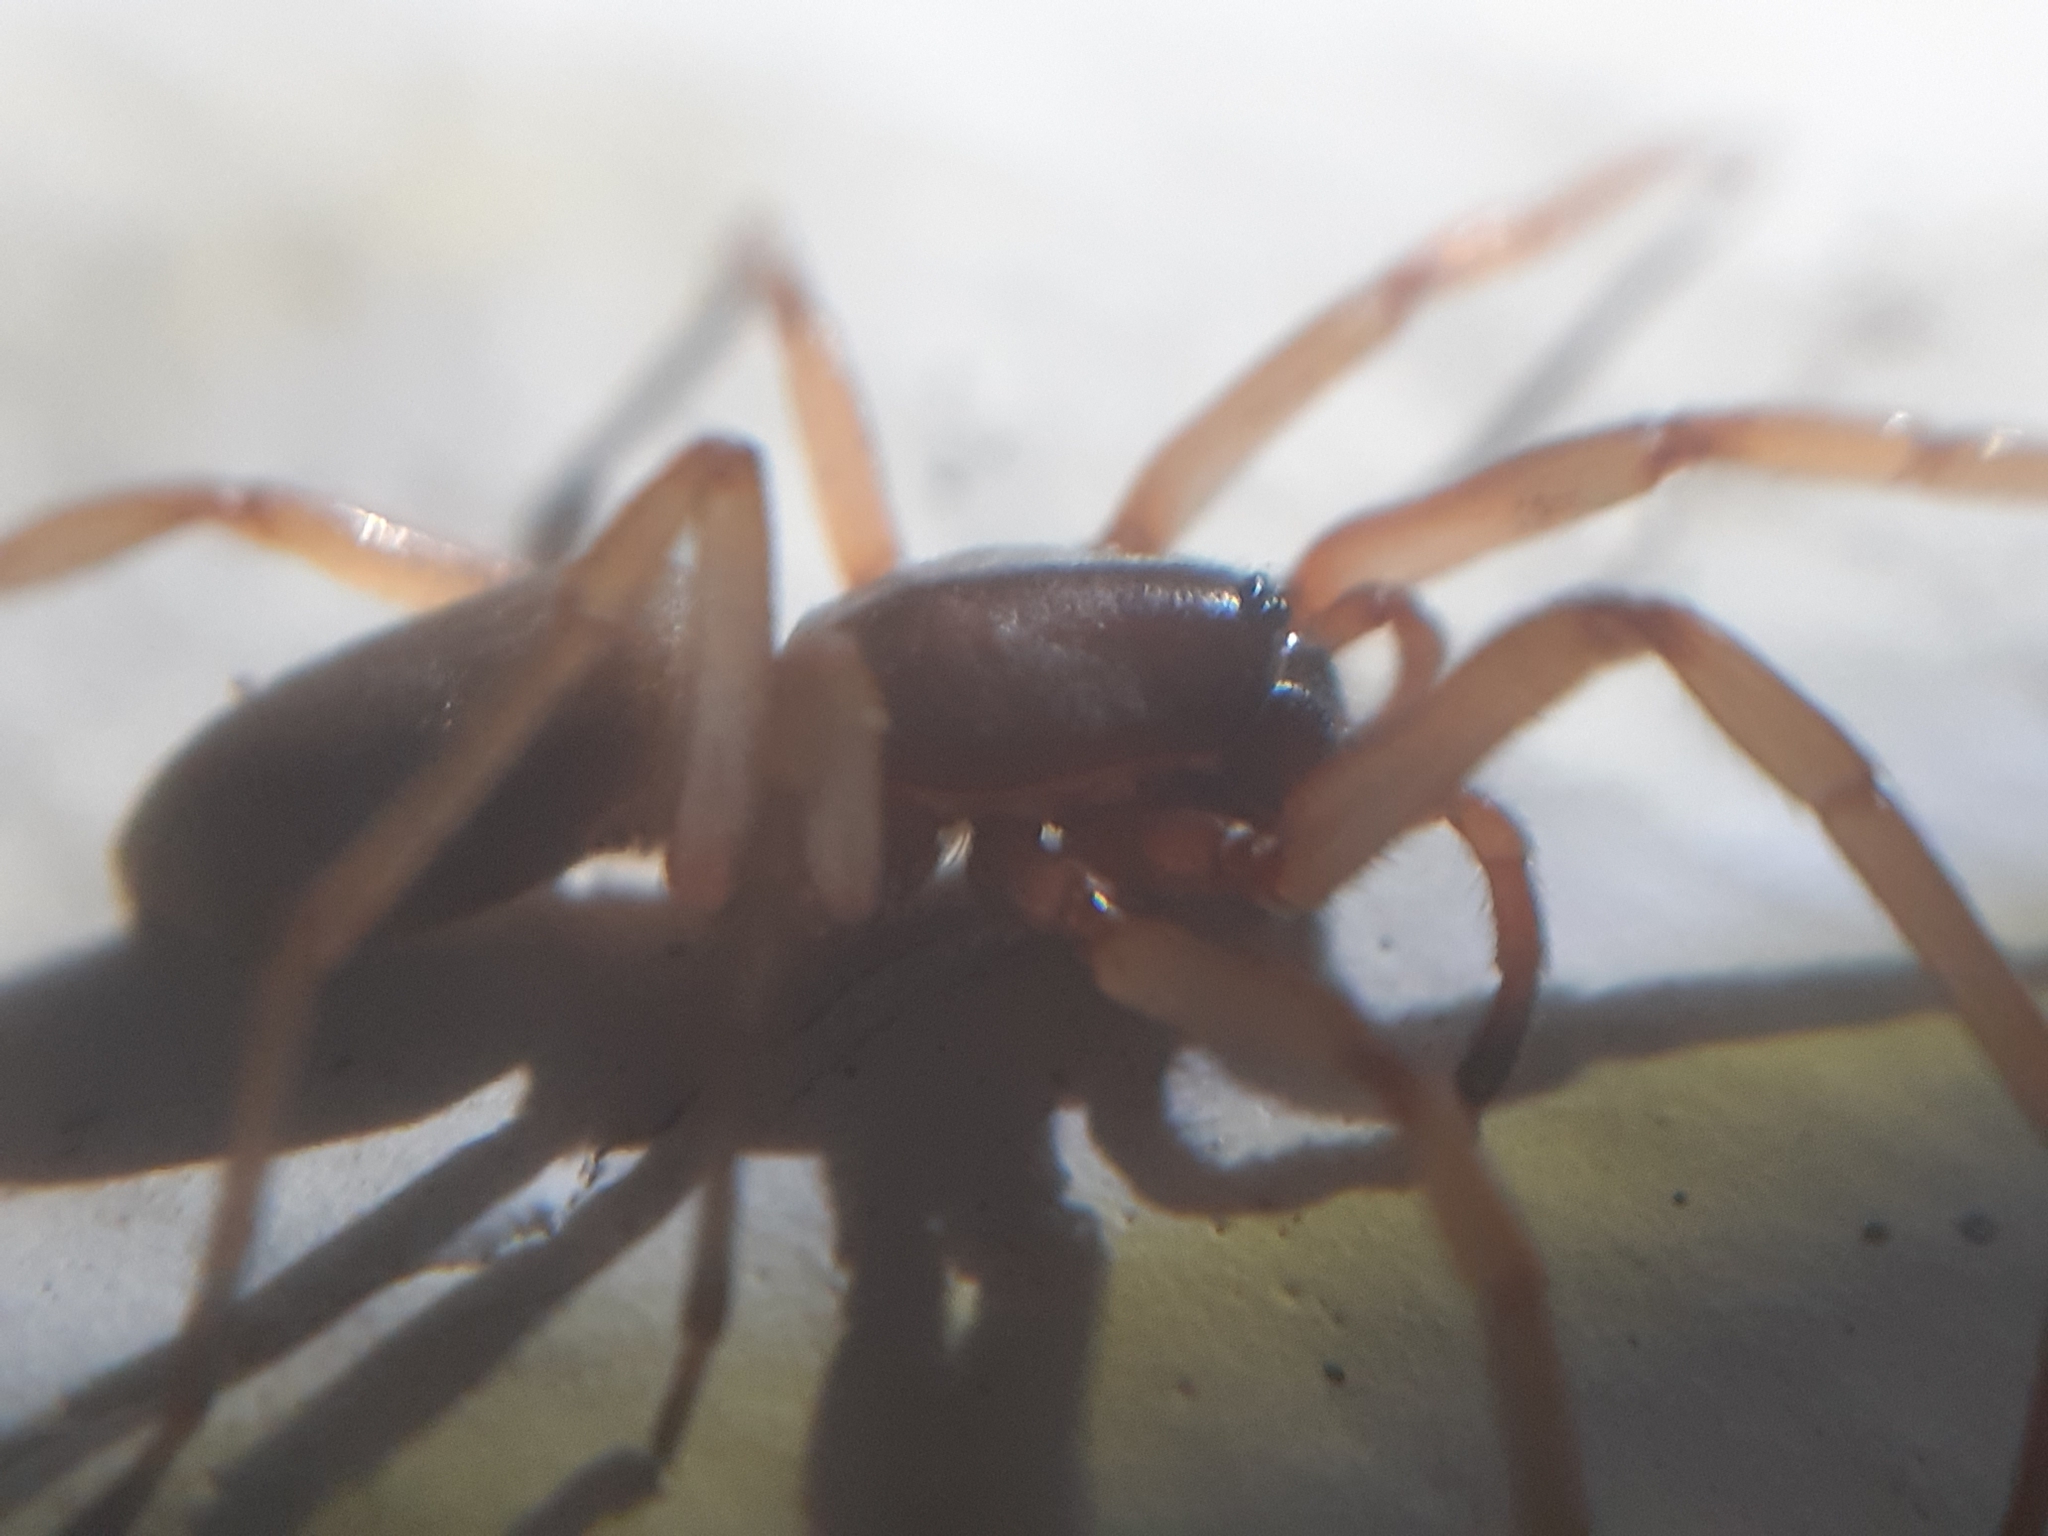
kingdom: Animalia
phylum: Arthropoda
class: Arachnida
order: Araneae
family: Dysderidae
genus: Harpactea
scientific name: Harpactea rubicunda
